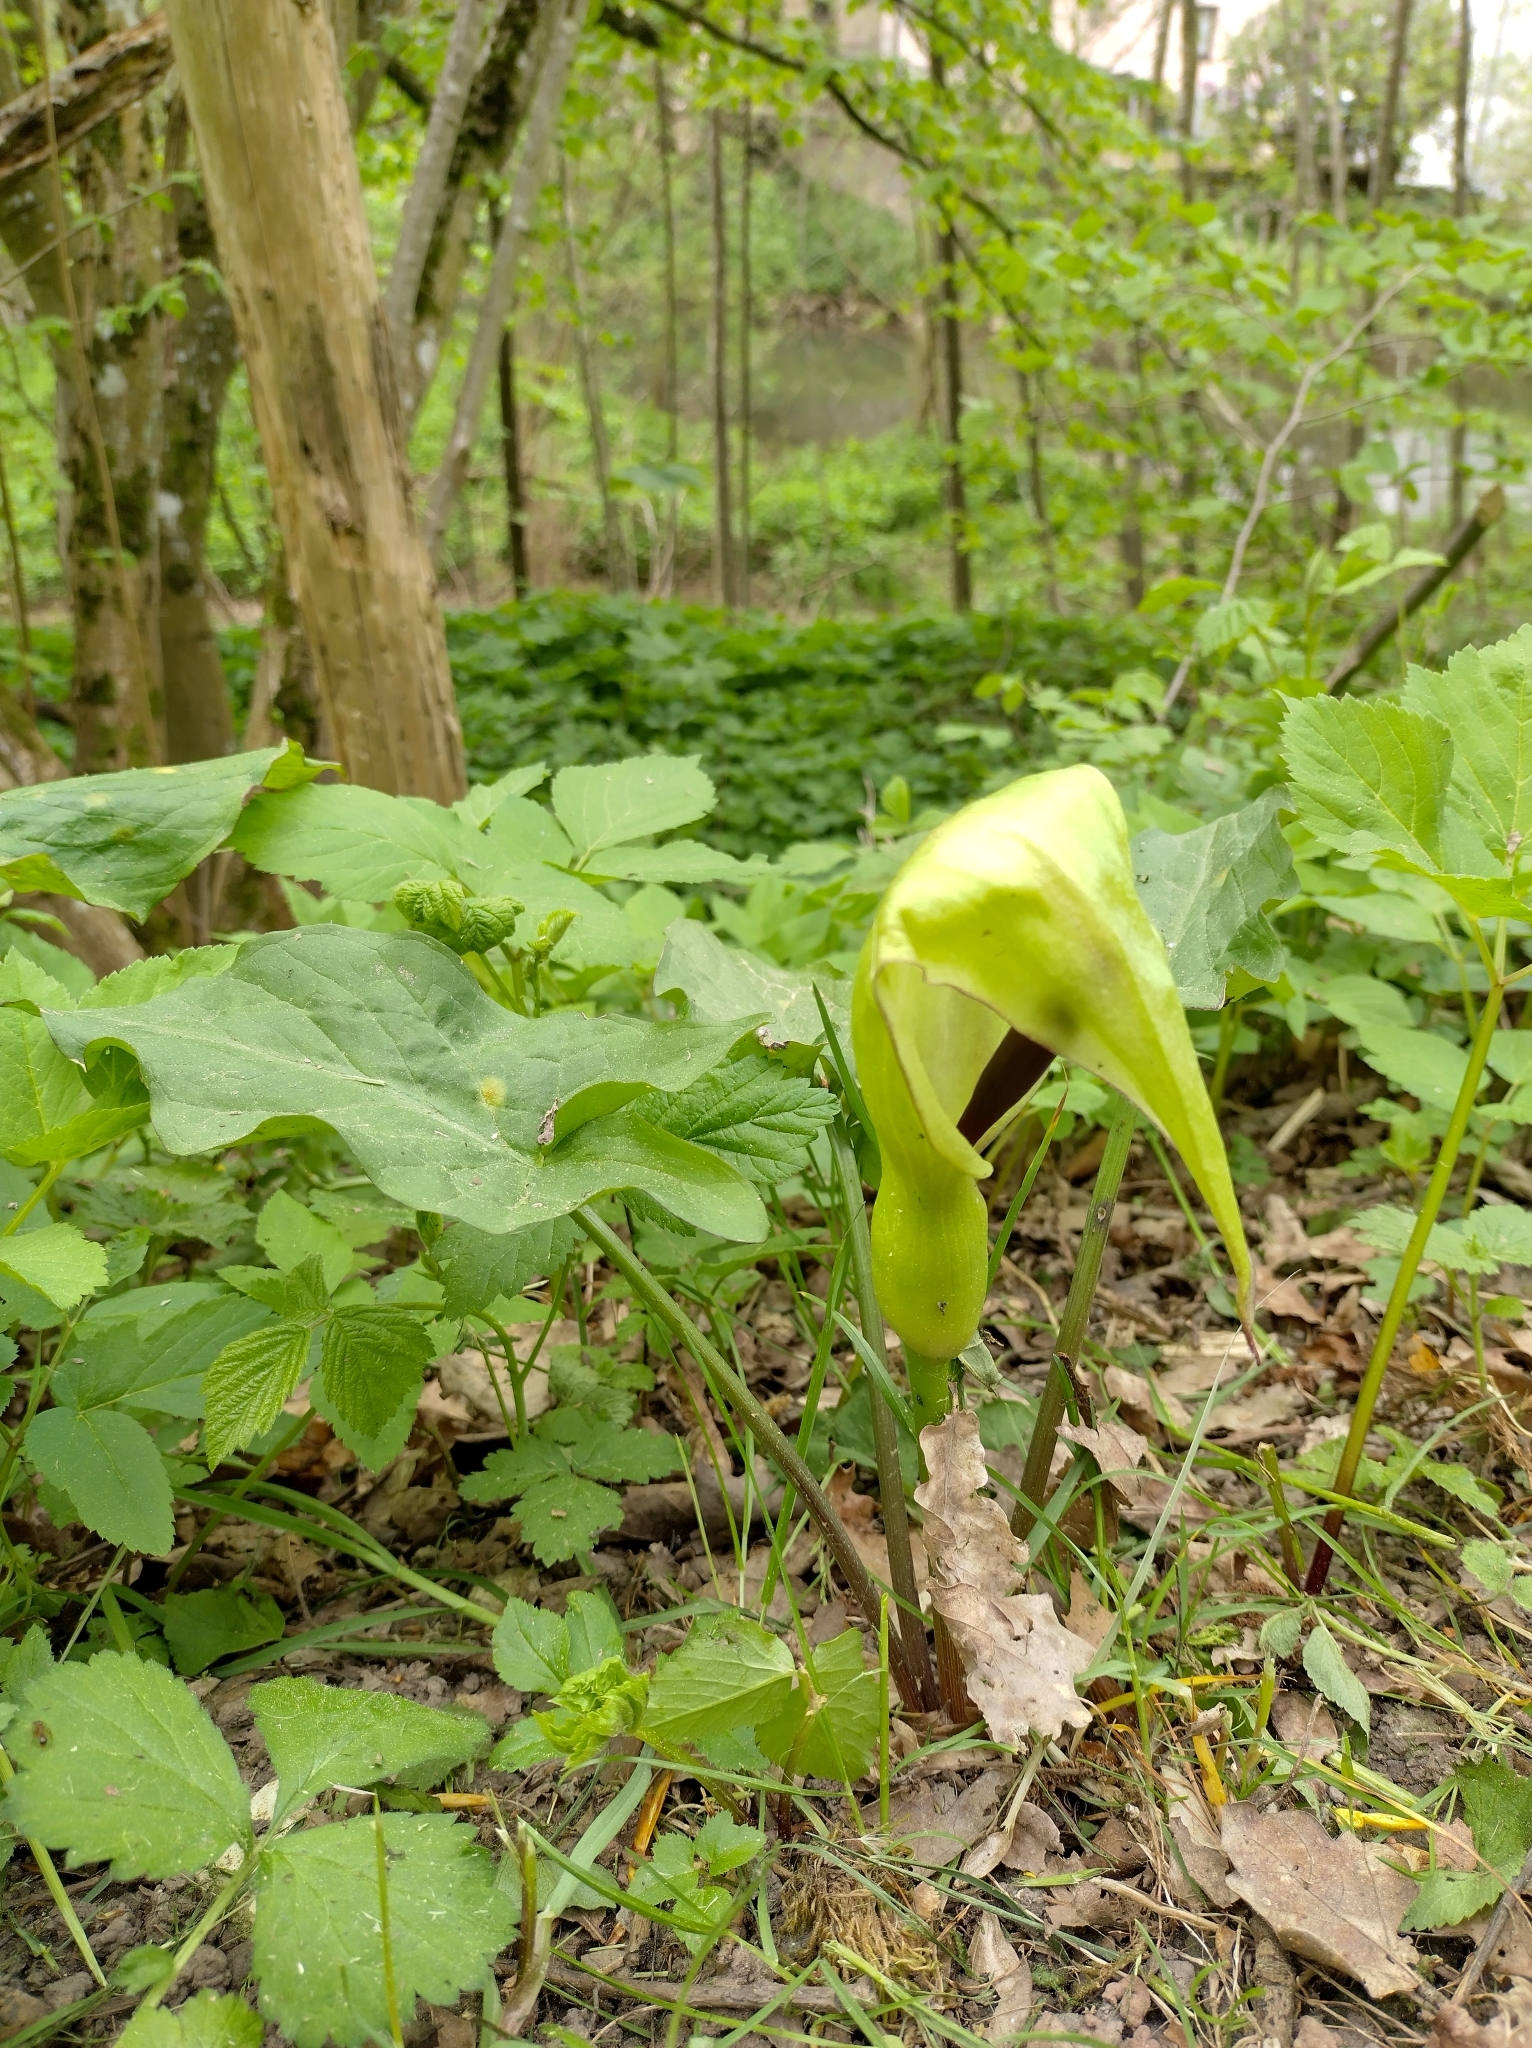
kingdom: Plantae
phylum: Tracheophyta
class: Liliopsida
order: Alismatales
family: Araceae
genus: Arum
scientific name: Arum maculatum
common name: Lords-and-ladies
